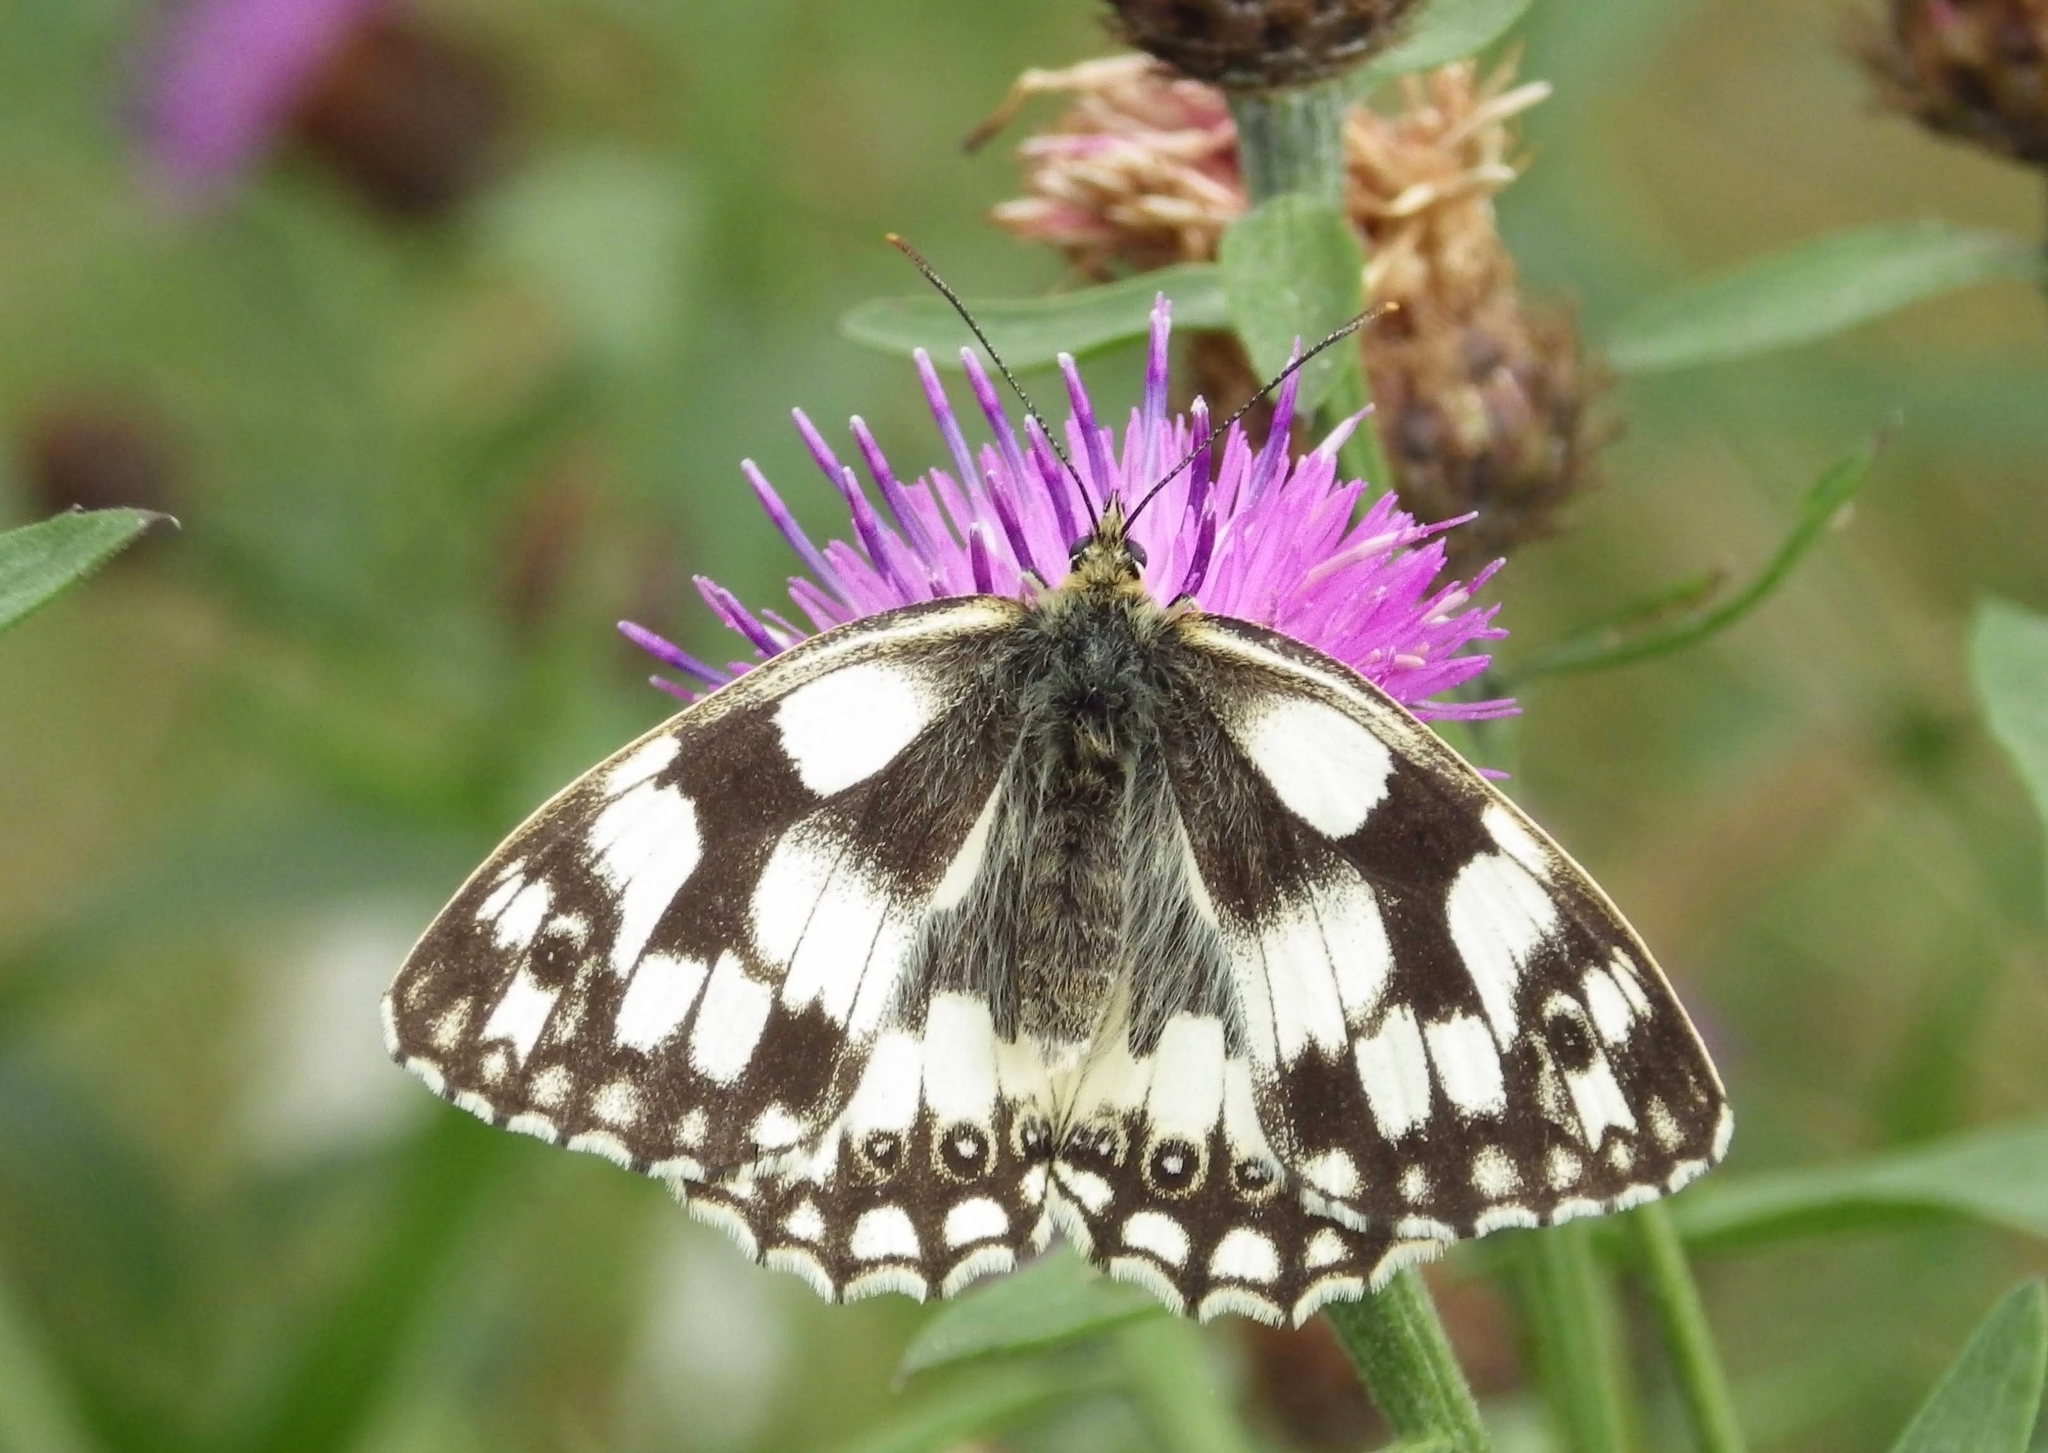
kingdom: Animalia
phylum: Arthropoda
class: Insecta
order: Lepidoptera
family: Nymphalidae
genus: Melanargia
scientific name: Melanargia galathea
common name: Marbled white
